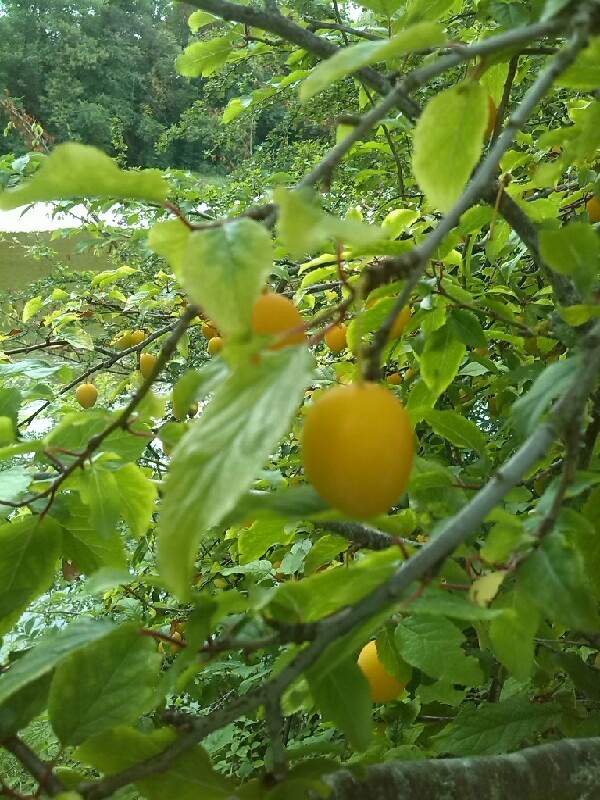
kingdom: Plantae
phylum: Tracheophyta
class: Magnoliopsida
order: Rosales
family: Rosaceae
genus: Prunus
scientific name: Prunus cerasifera
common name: Cherry plum
